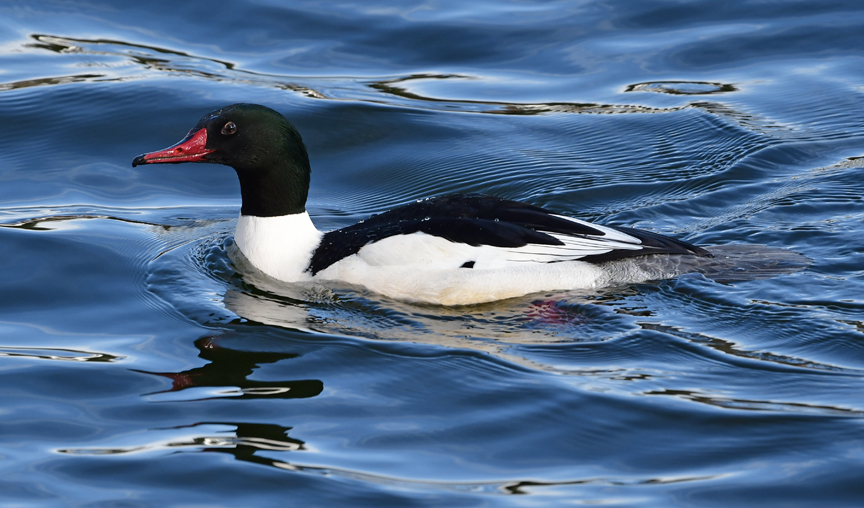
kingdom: Animalia
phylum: Chordata
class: Aves
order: Anseriformes
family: Anatidae
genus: Mergus
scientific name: Mergus merganser
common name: Common merganser
